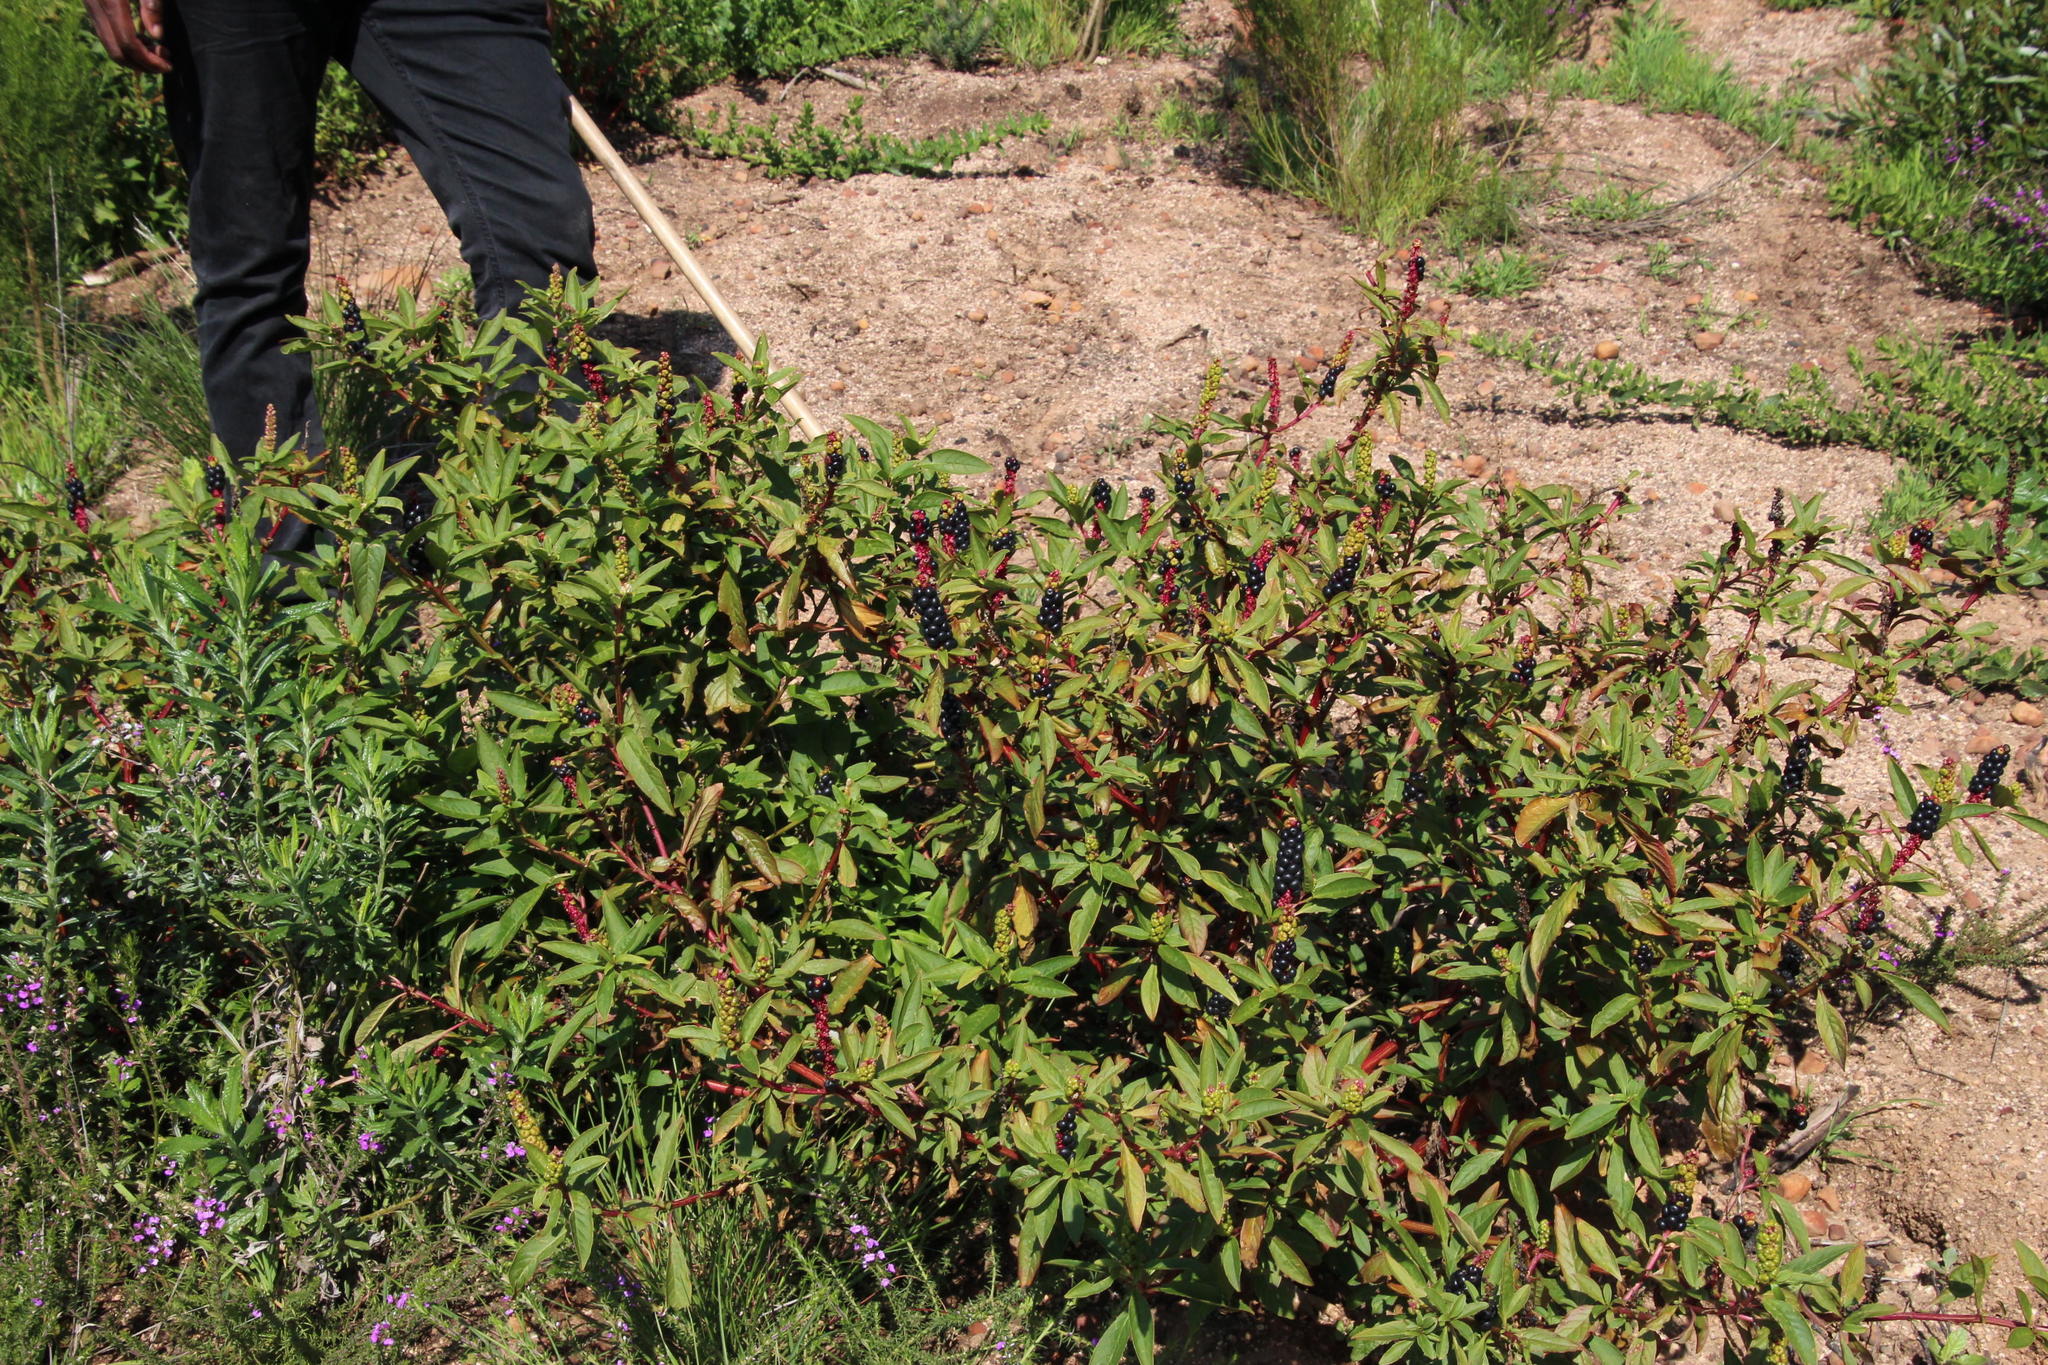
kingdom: Plantae
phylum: Tracheophyta
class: Magnoliopsida
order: Caryophyllales
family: Phytolaccaceae
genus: Phytolacca
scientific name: Phytolacca icosandra
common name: Button pokeweed
